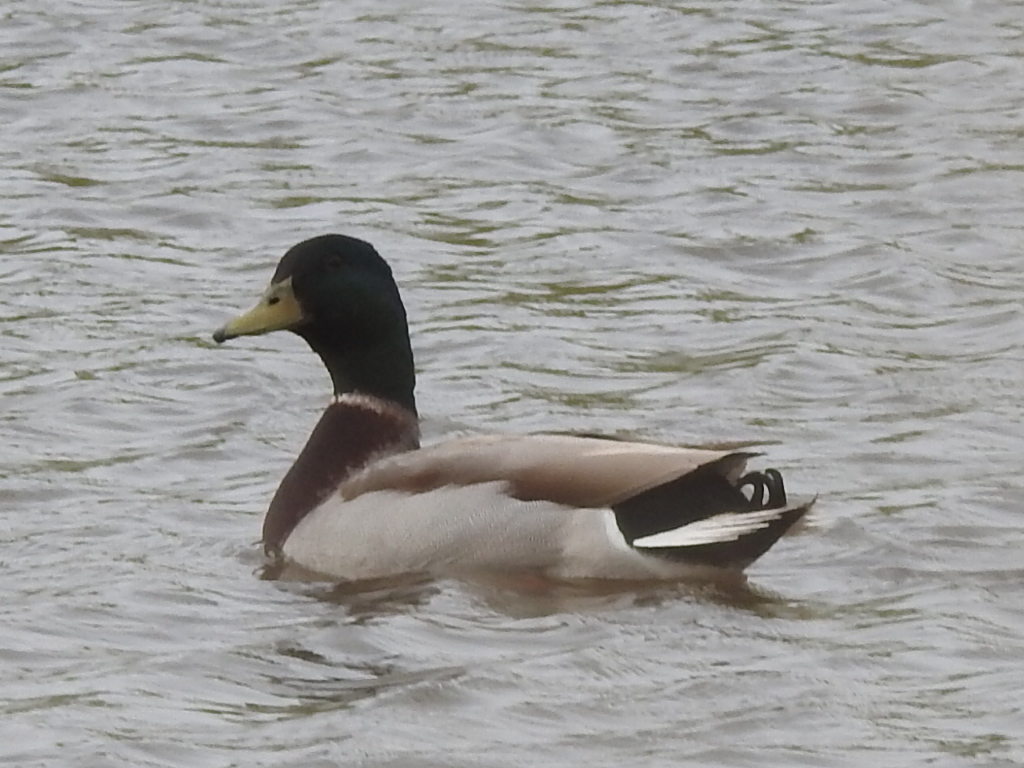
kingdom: Animalia
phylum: Chordata
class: Aves
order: Anseriformes
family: Anatidae
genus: Anas
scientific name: Anas platyrhynchos
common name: Mallard
